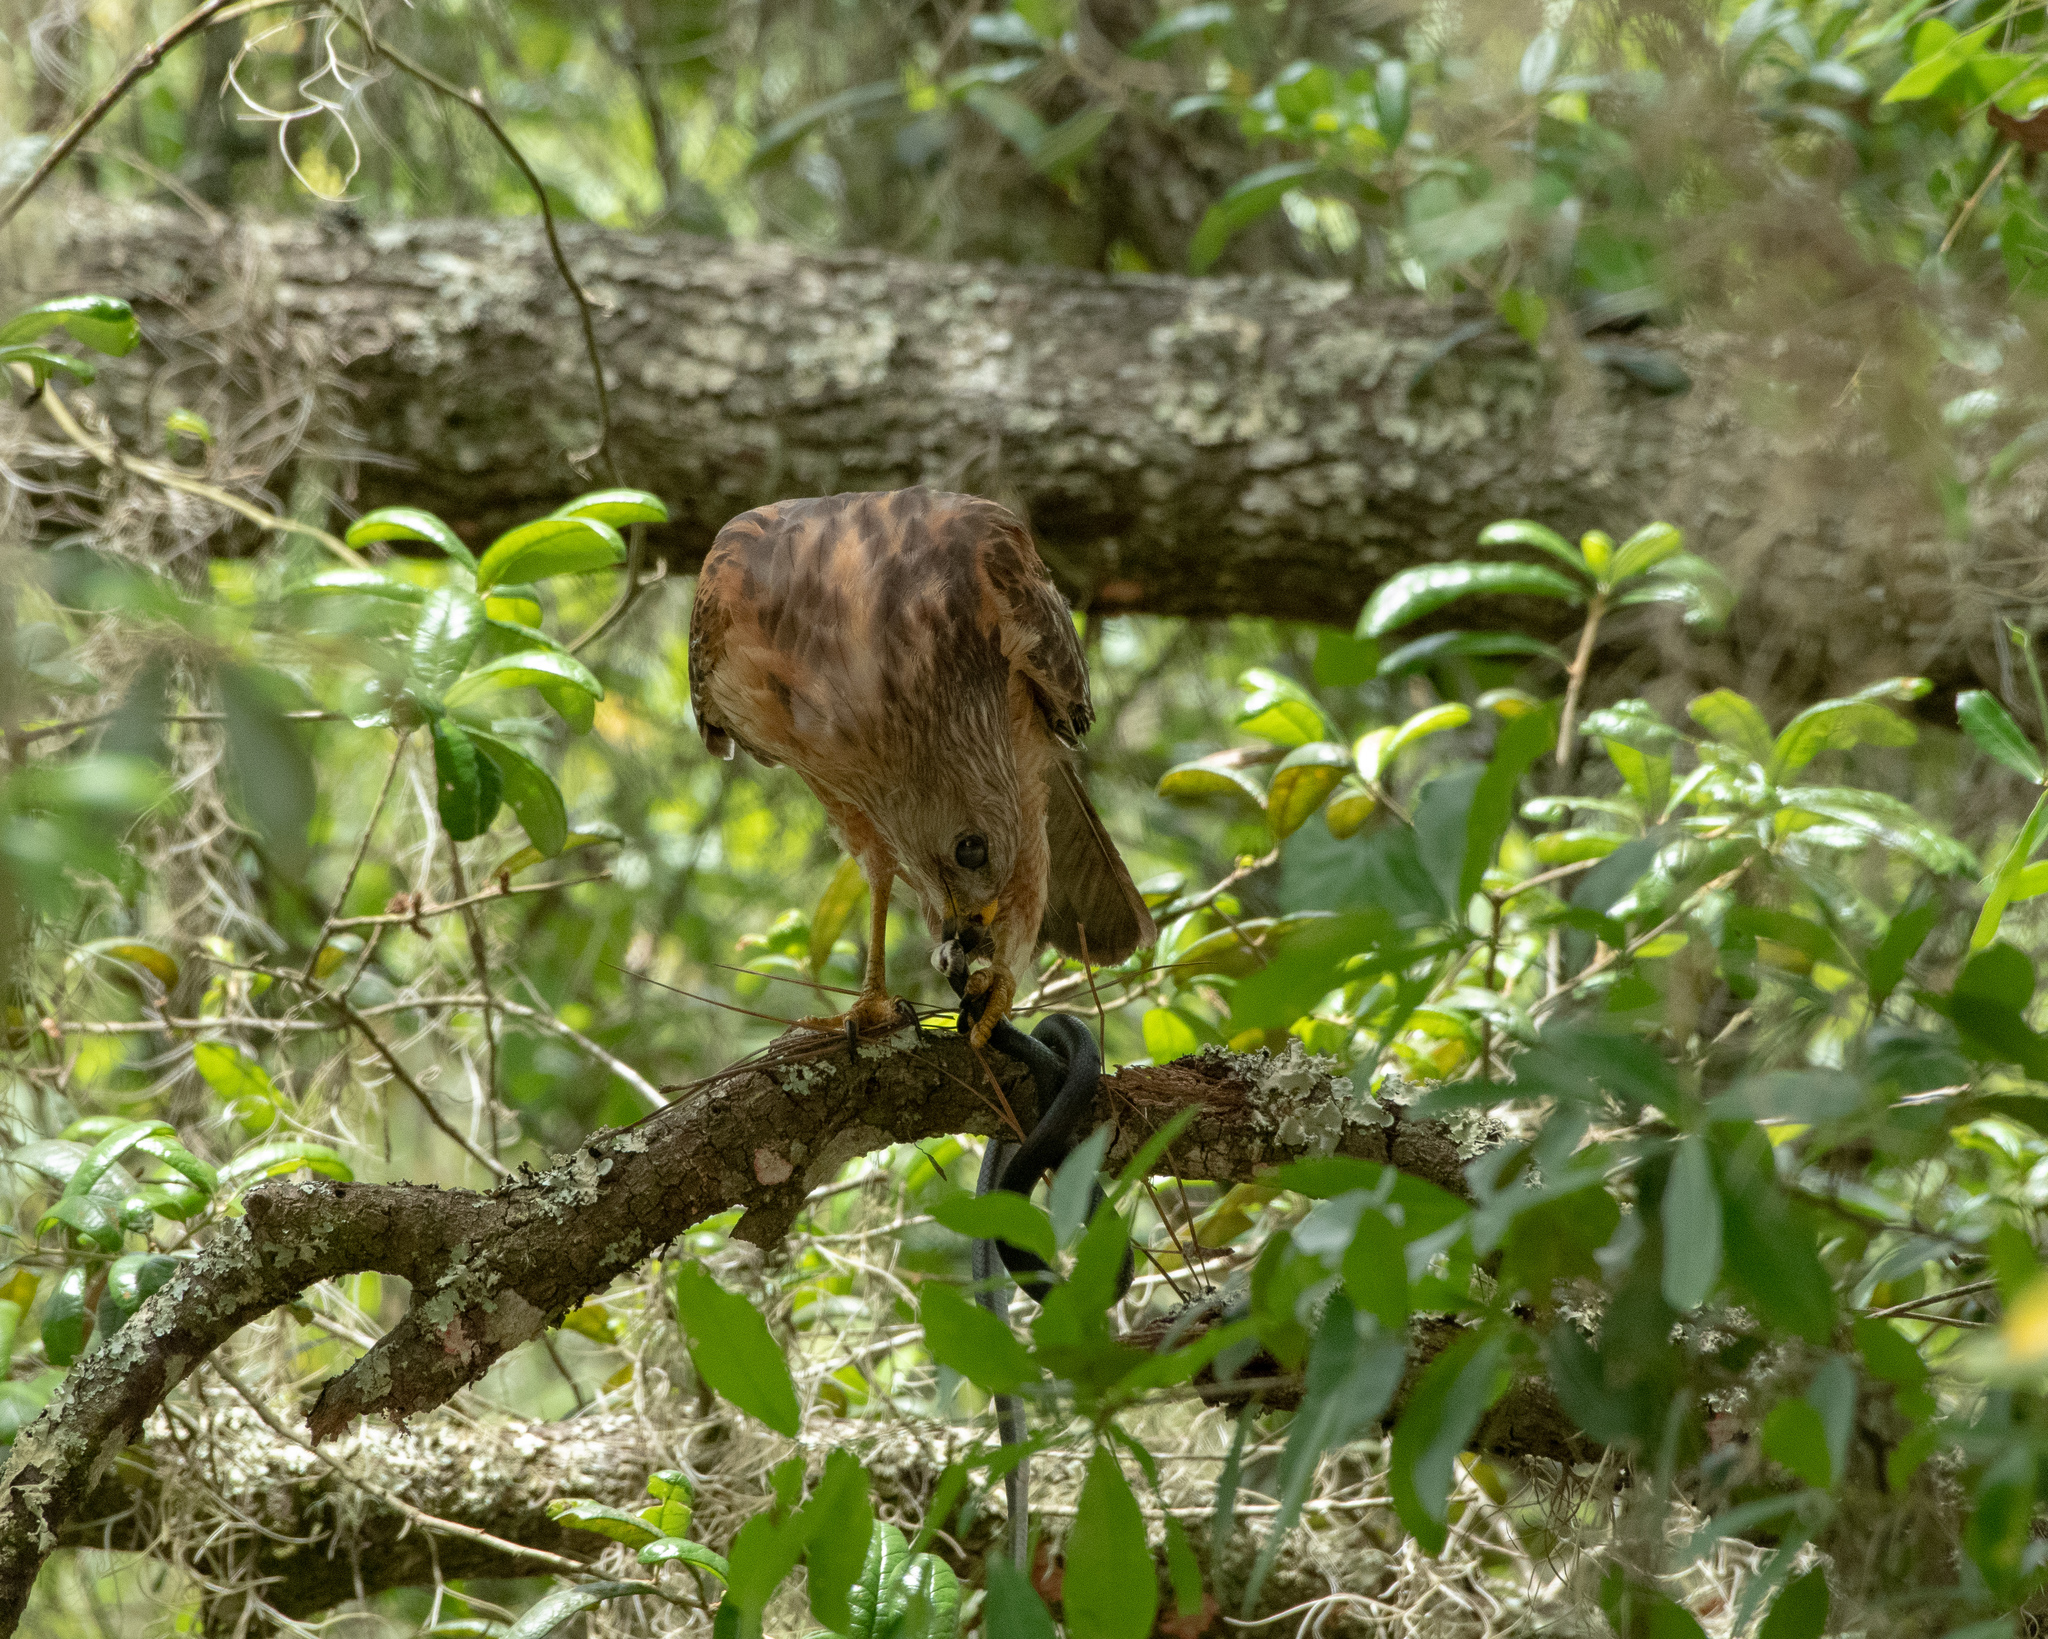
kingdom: Animalia
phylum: Chordata
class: Aves
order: Accipitriformes
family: Accipitridae
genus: Buteo
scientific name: Buteo lineatus
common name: Red-shouldered hawk
